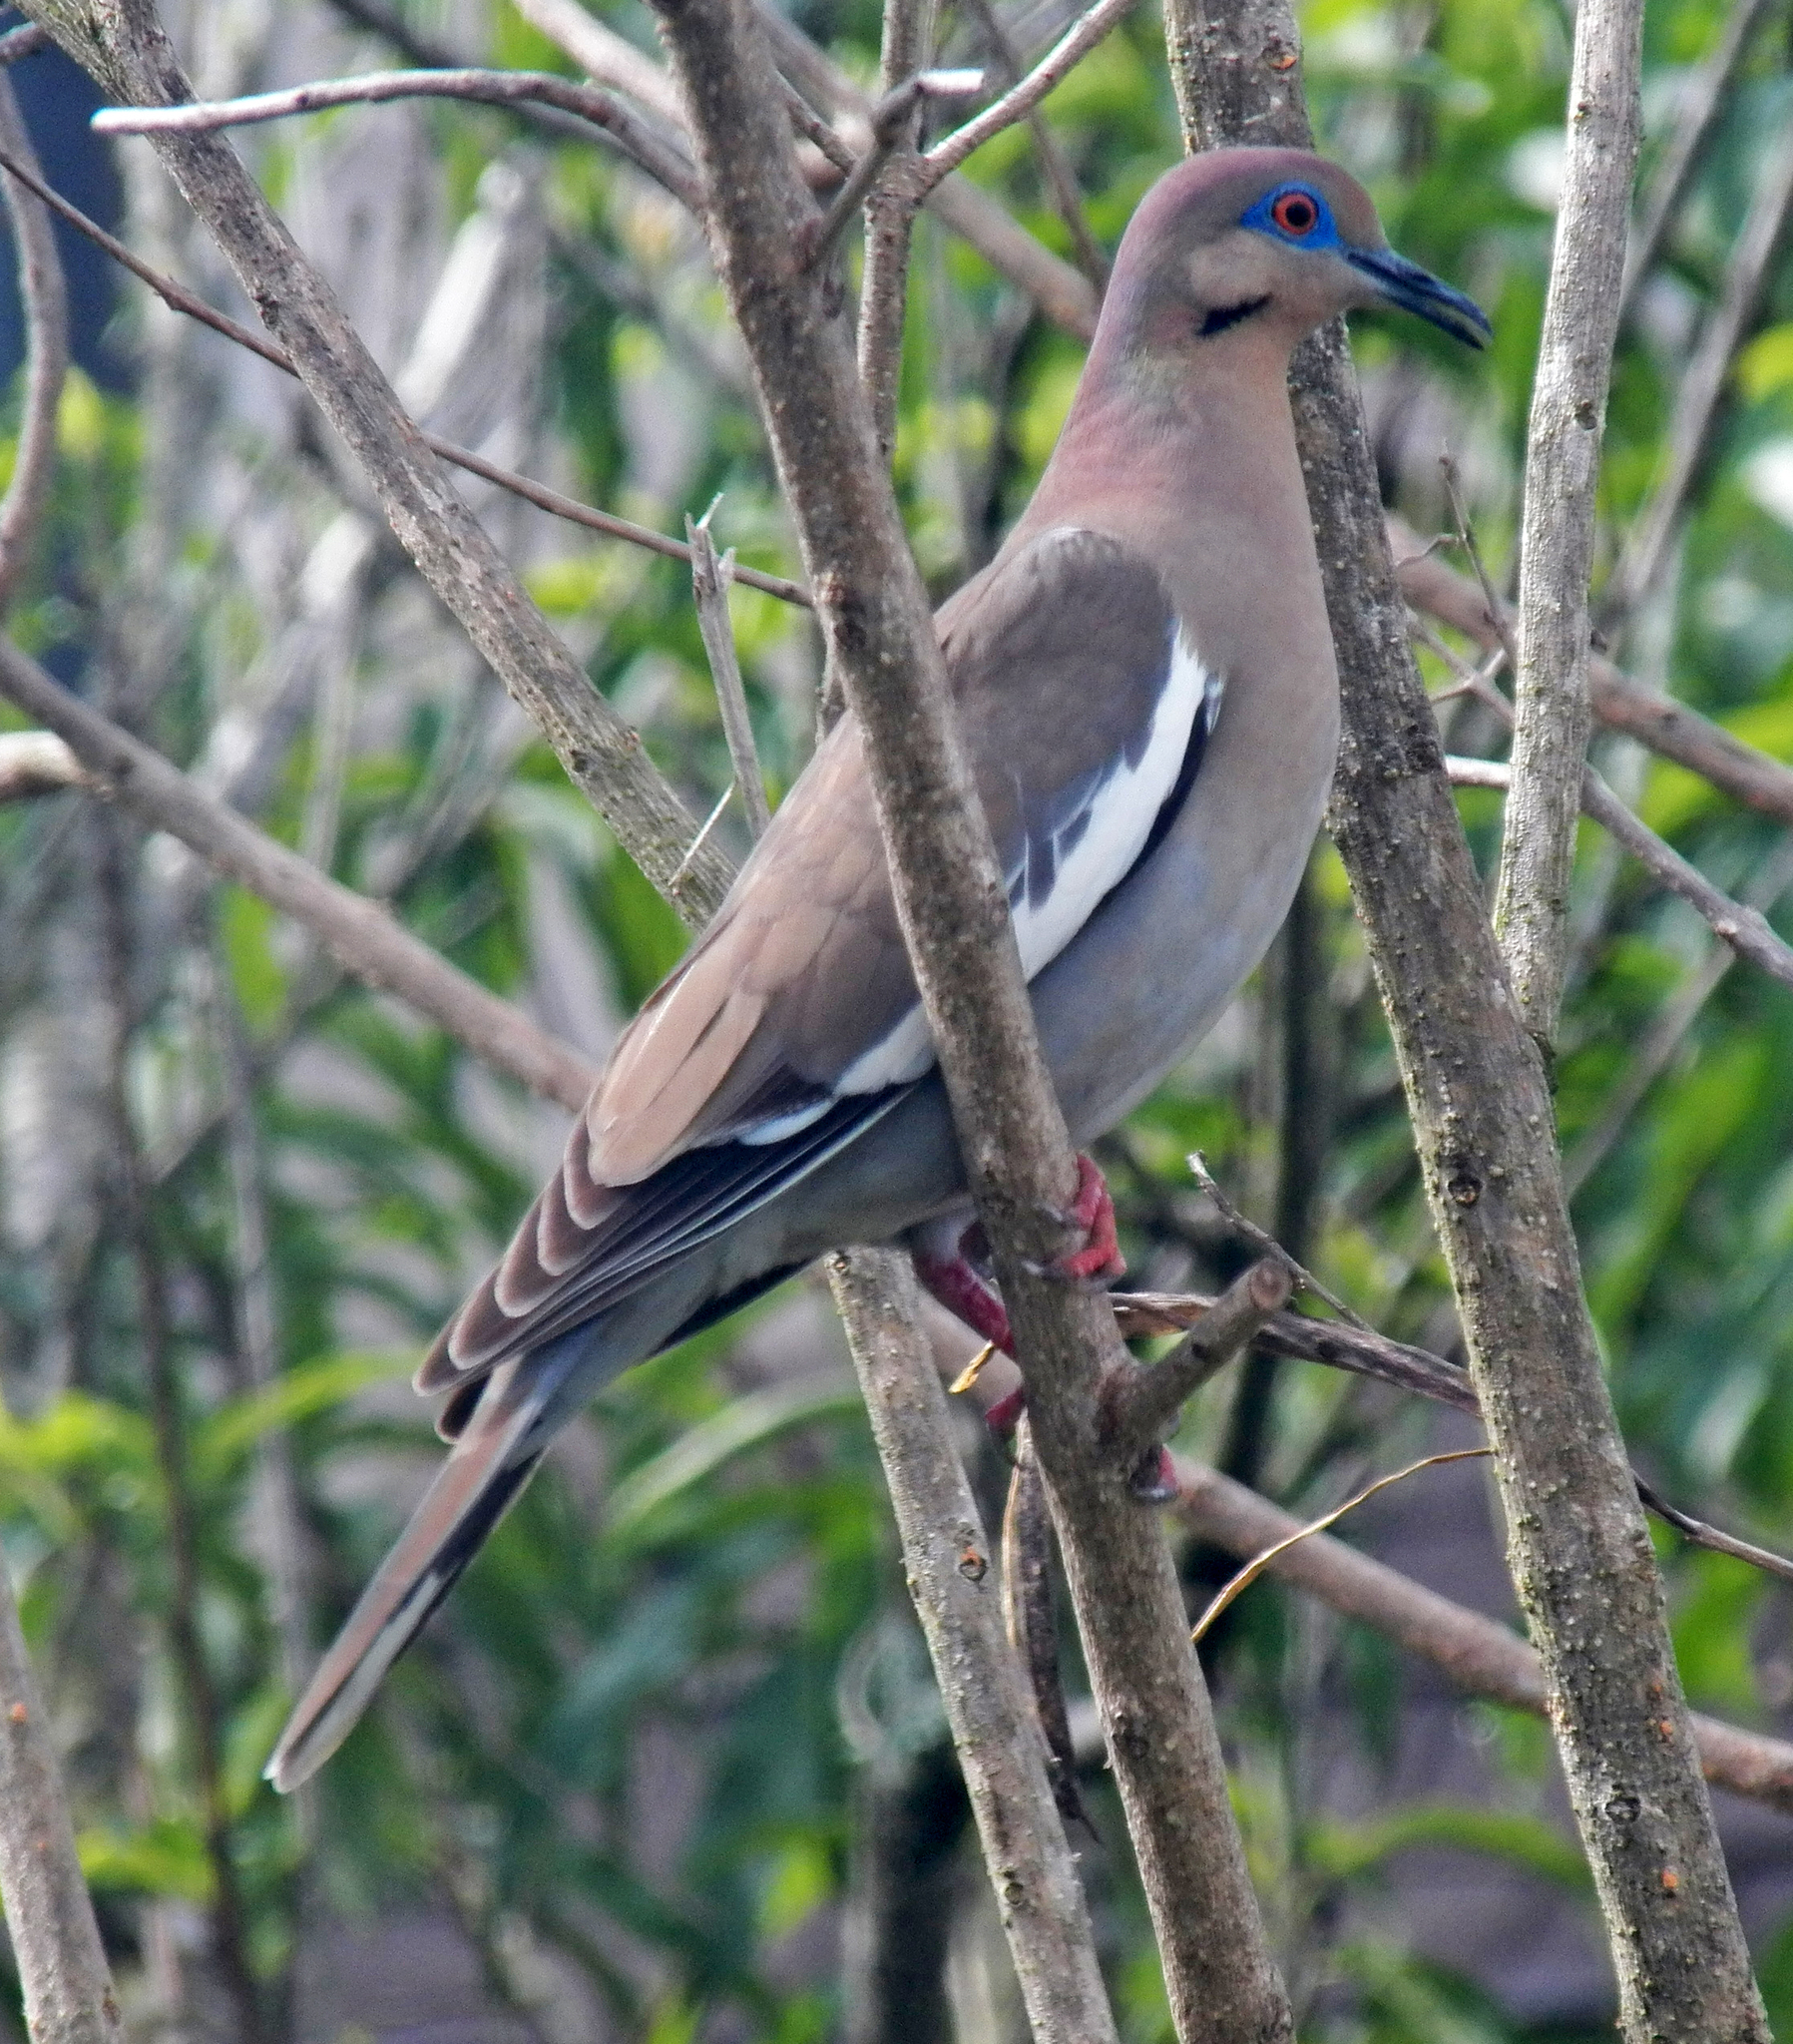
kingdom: Animalia
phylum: Chordata
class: Aves
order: Columbiformes
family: Columbidae
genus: Zenaida
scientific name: Zenaida asiatica
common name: White-winged dove
